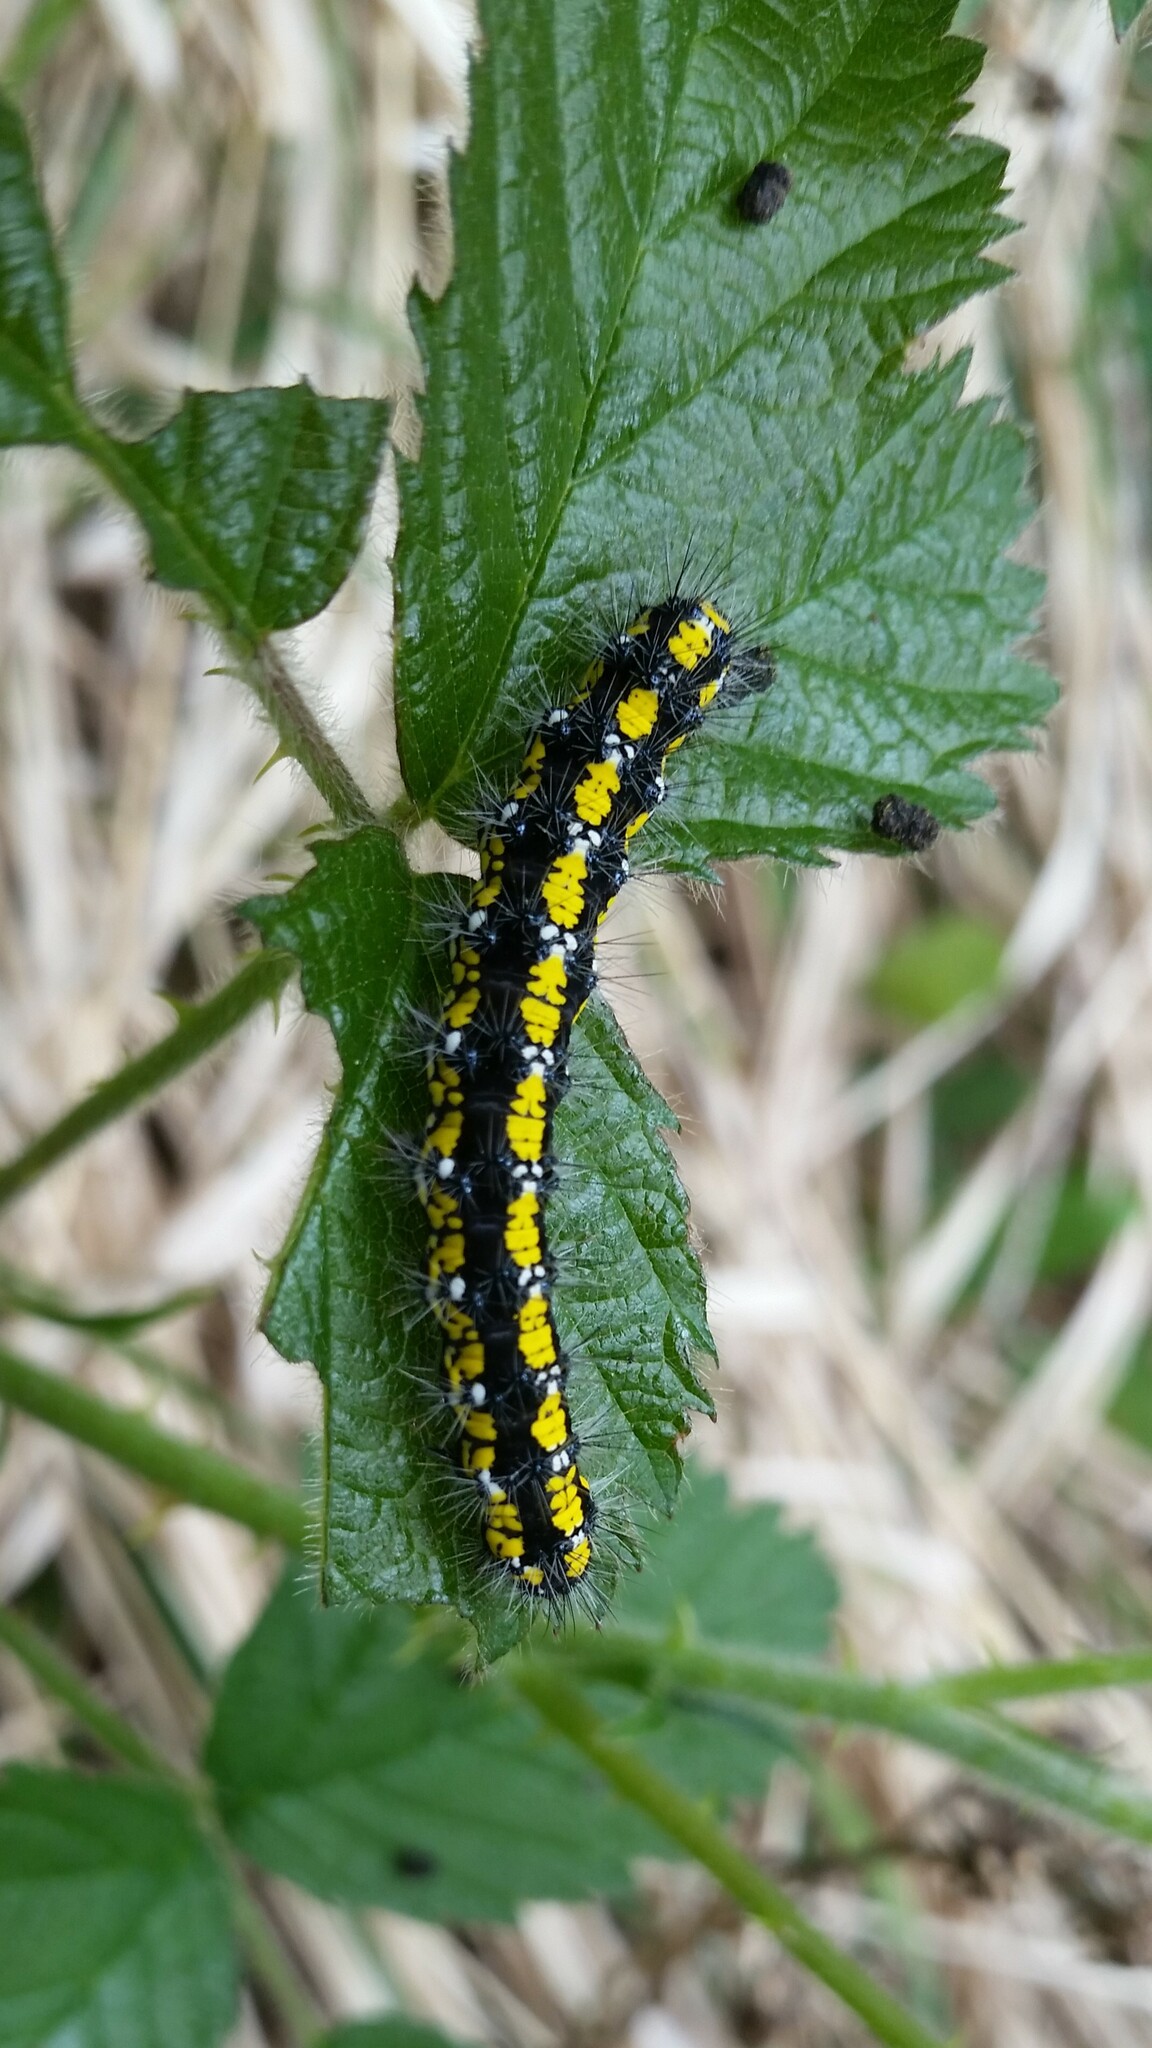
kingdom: Animalia
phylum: Arthropoda
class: Insecta
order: Lepidoptera
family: Erebidae
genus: Callimorpha
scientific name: Callimorpha dominula
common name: Scarlet tiger
